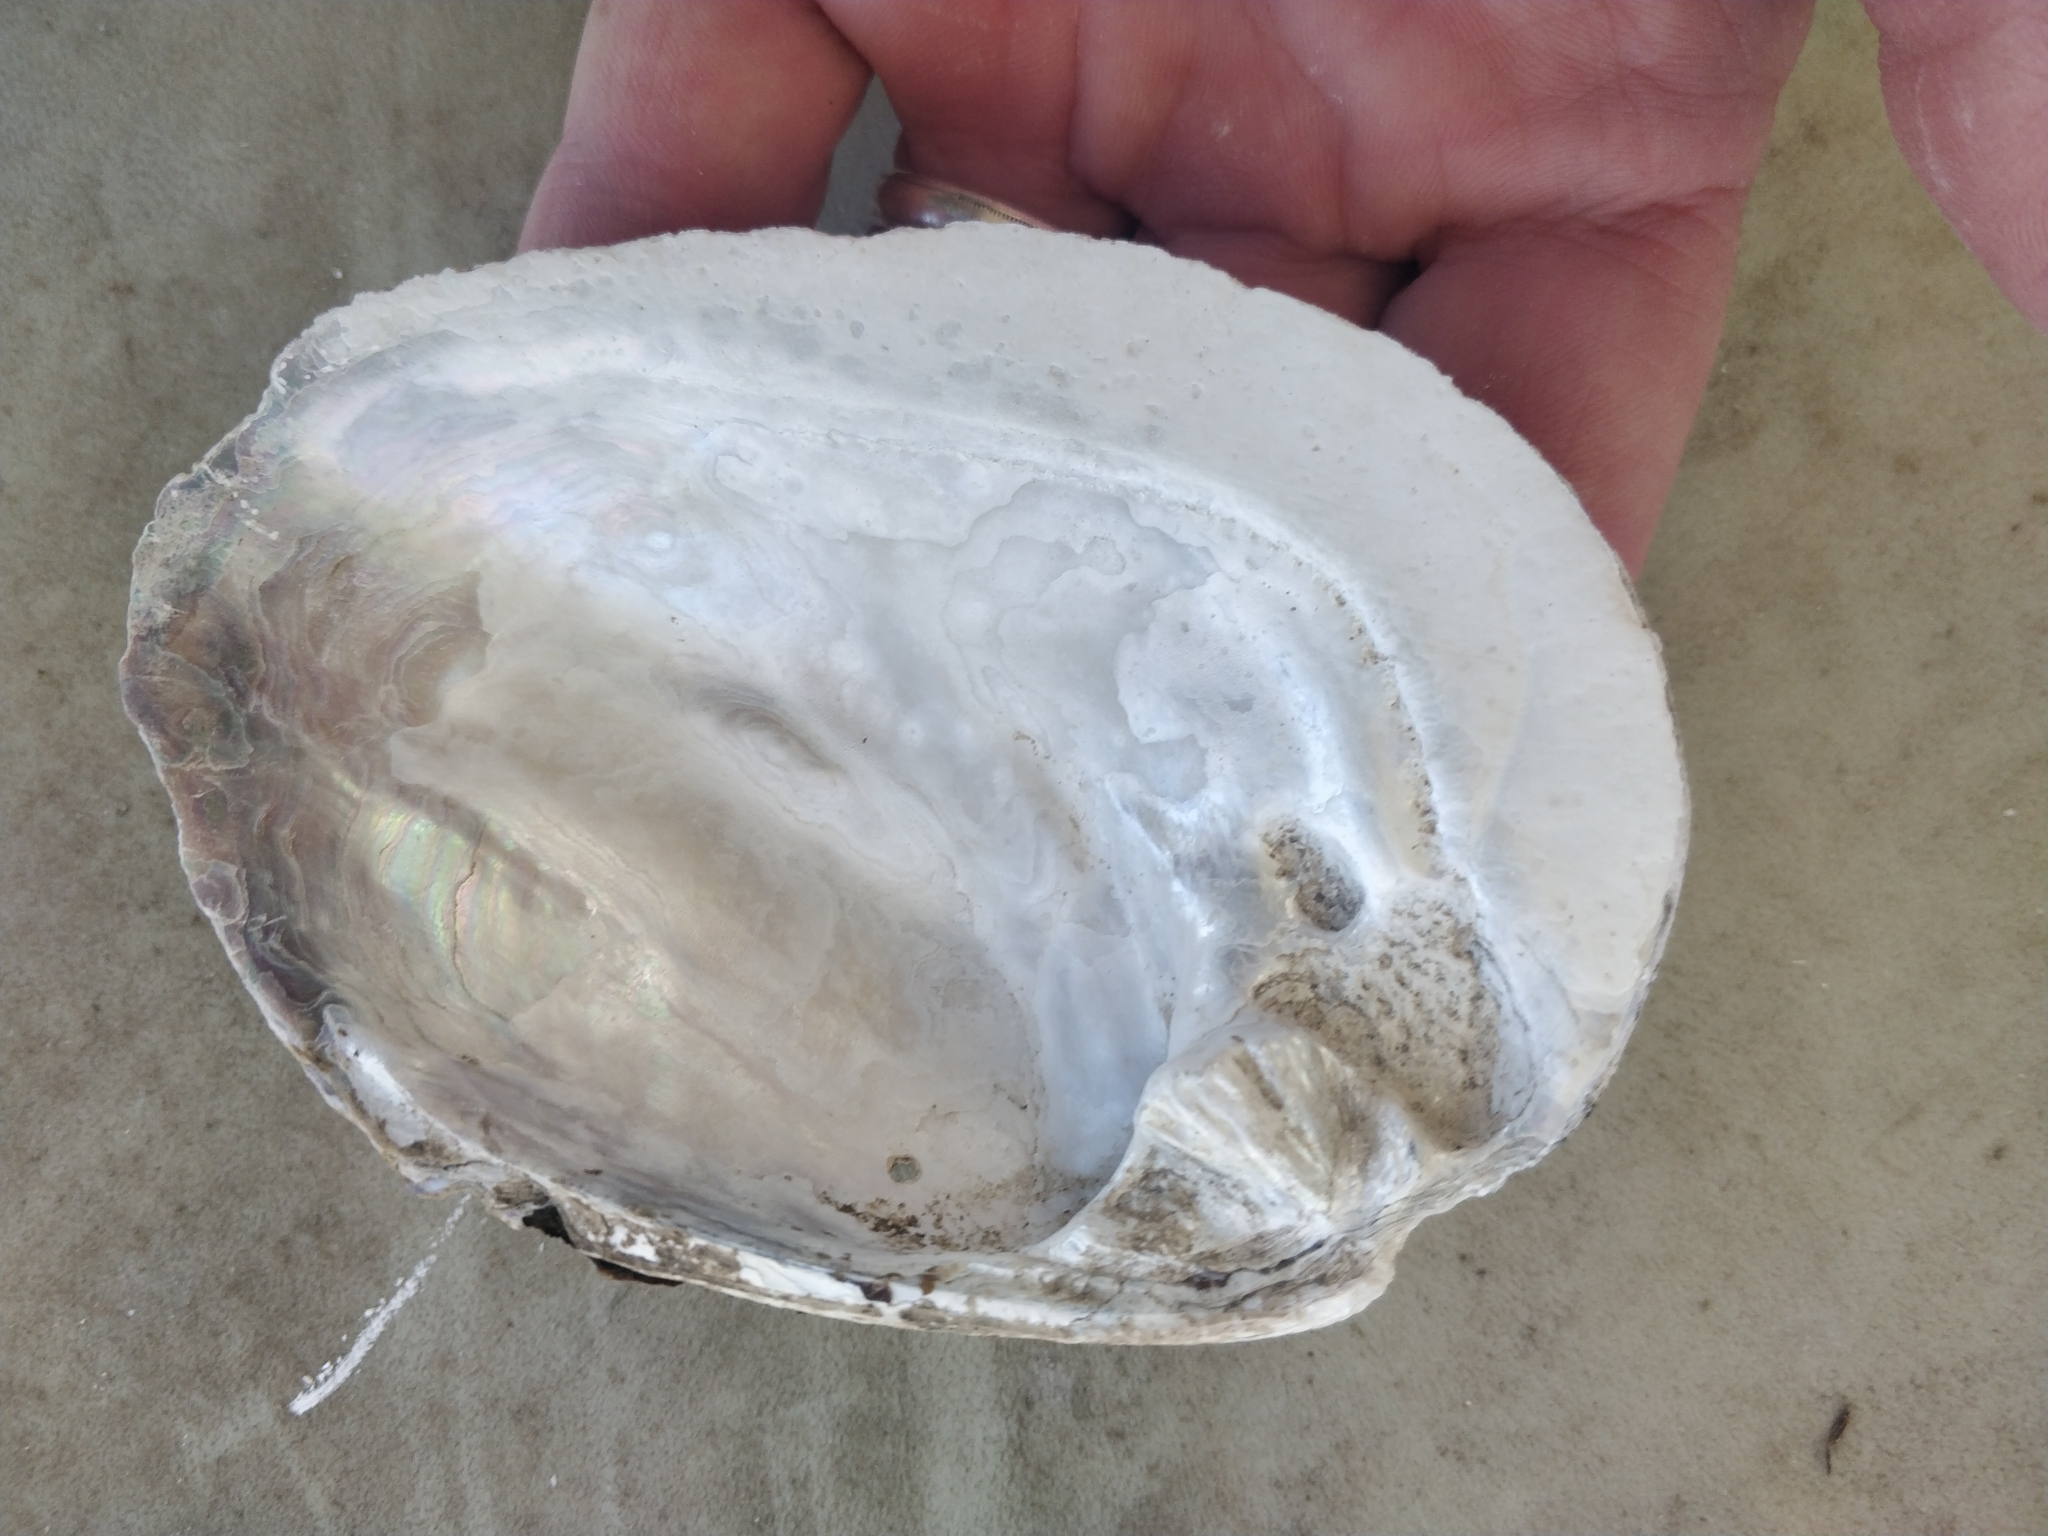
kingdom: Animalia
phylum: Mollusca
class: Bivalvia
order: Unionida
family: Unionidae
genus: Amblema
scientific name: Amblema plicata
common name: Threeridge
